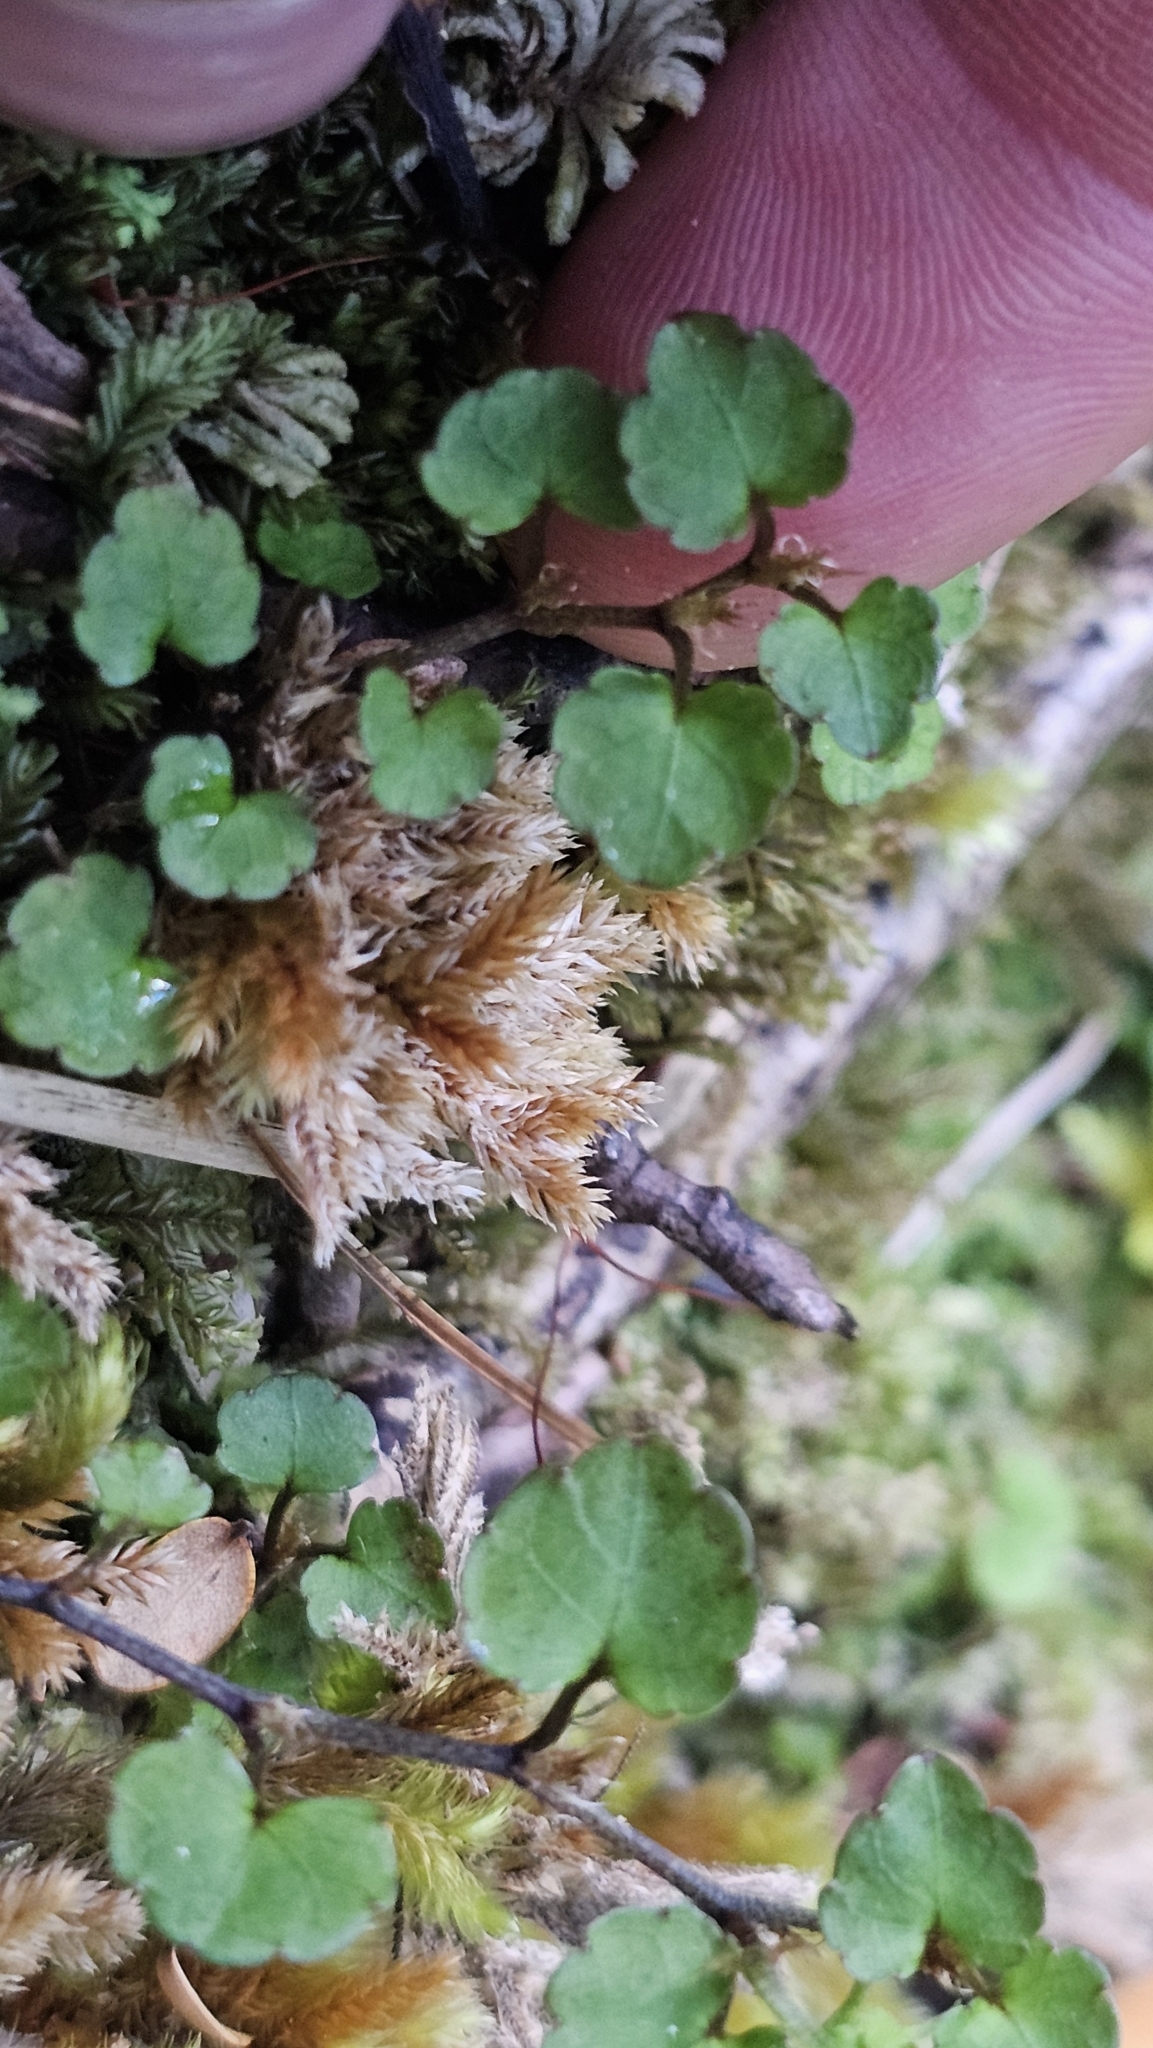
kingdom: Plantae
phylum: Tracheophyta
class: Magnoliopsida
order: Malpighiales
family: Violaceae
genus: Viola
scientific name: Viola filicaulis
